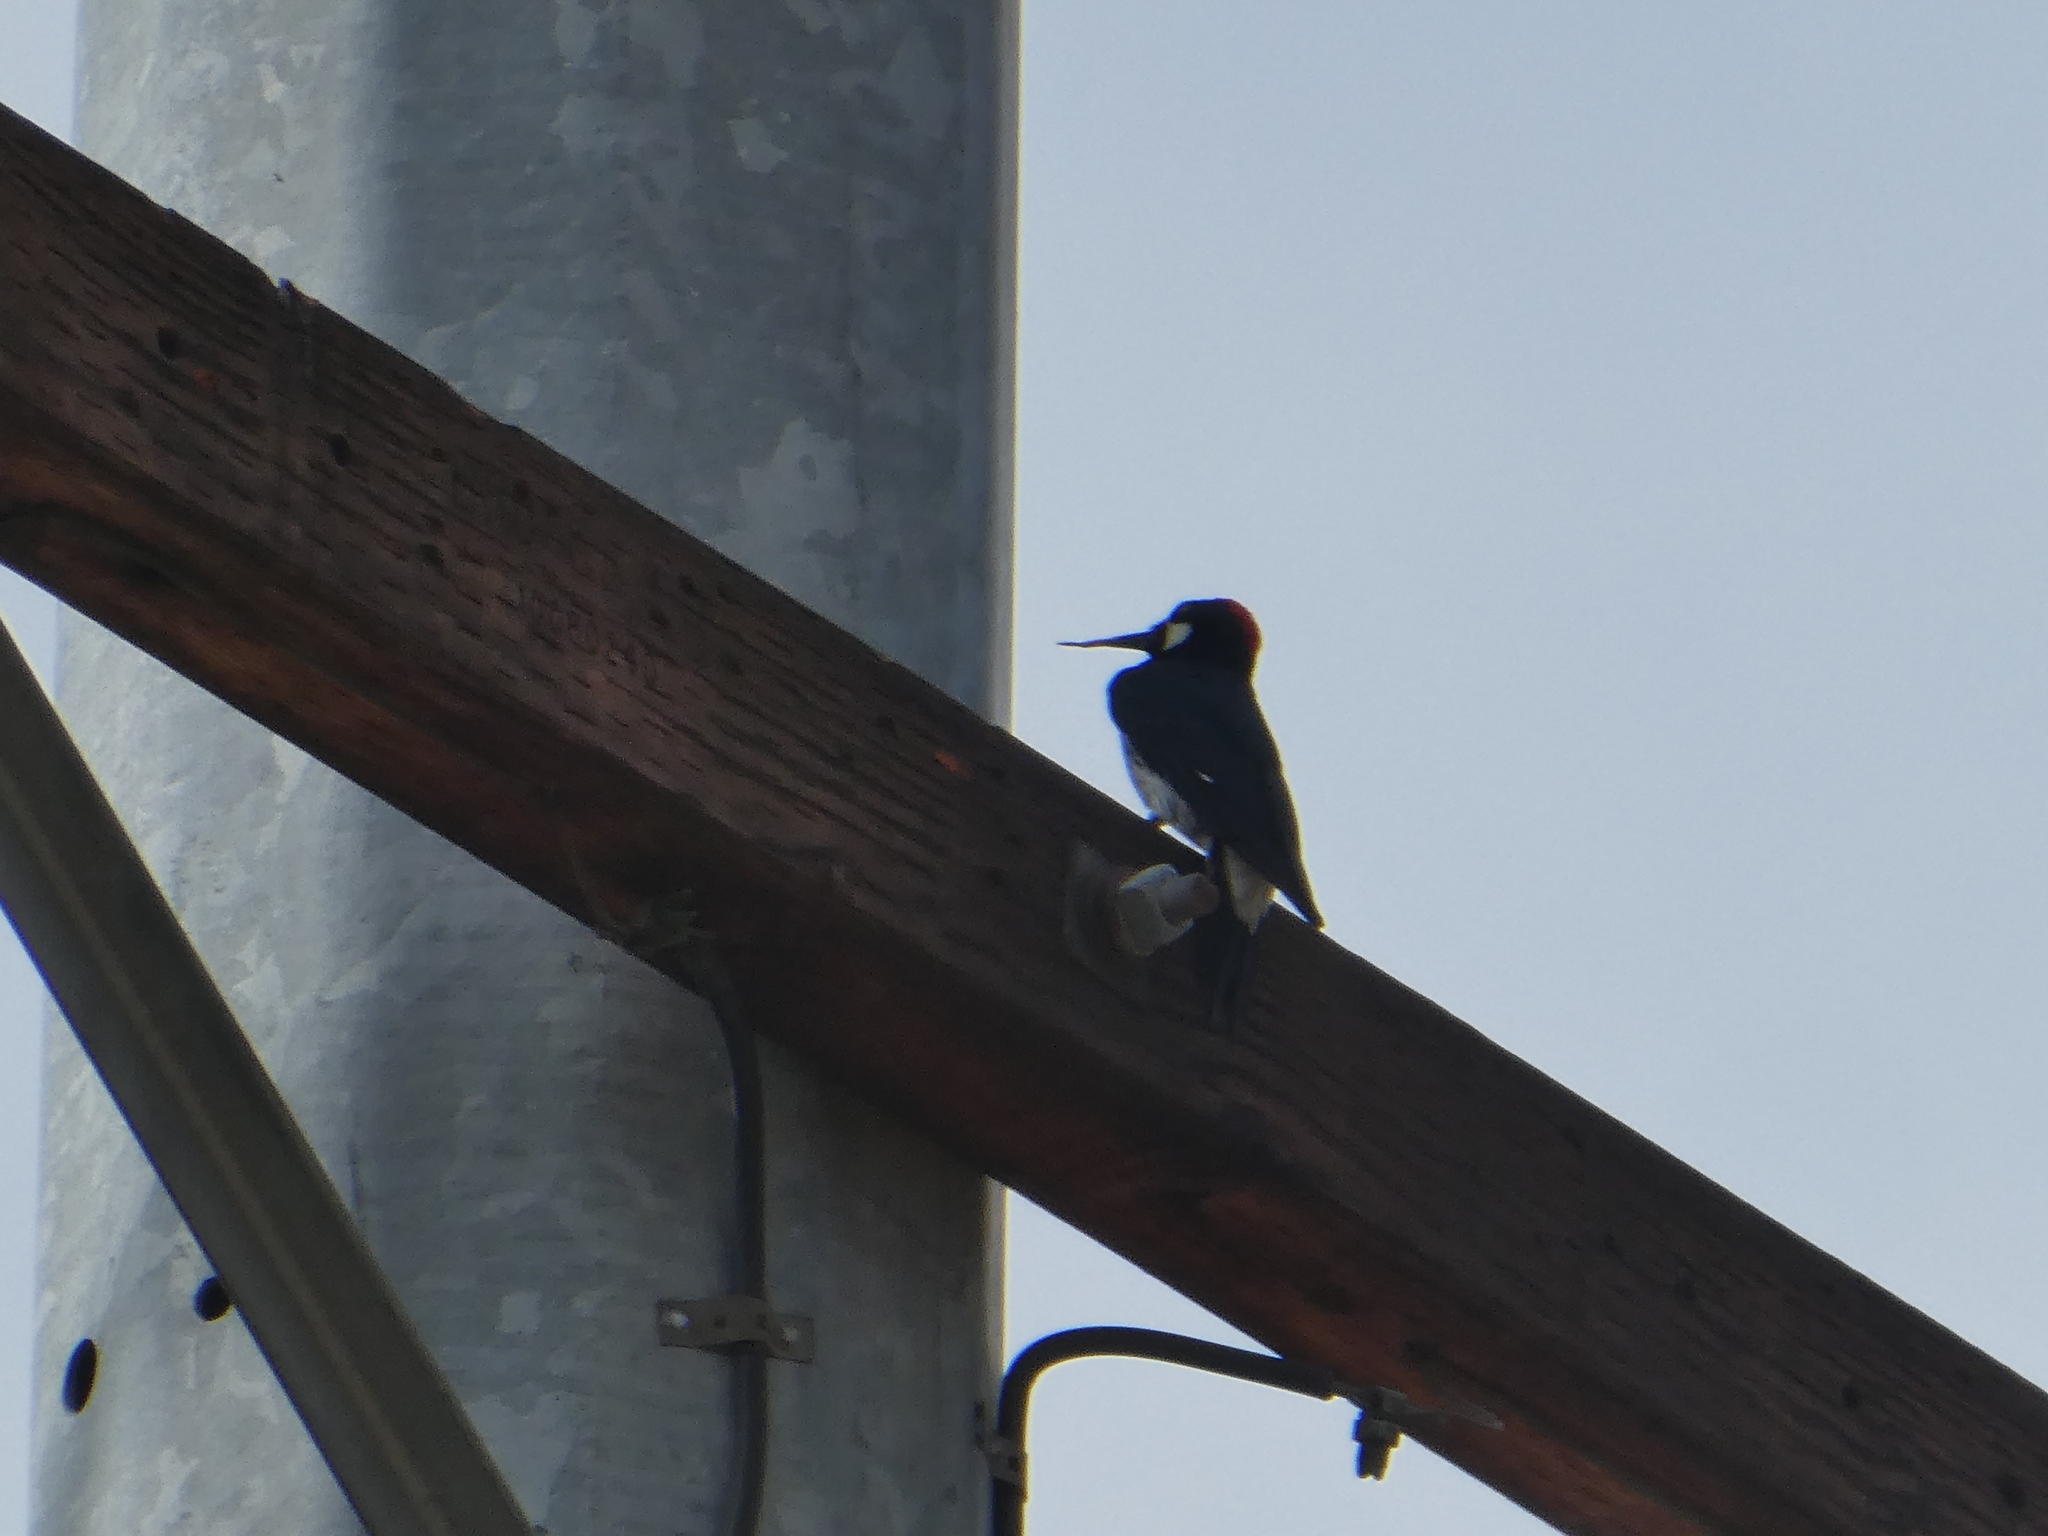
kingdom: Animalia
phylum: Chordata
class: Aves
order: Piciformes
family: Picidae
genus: Melanerpes
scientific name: Melanerpes formicivorus
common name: Acorn woodpecker
